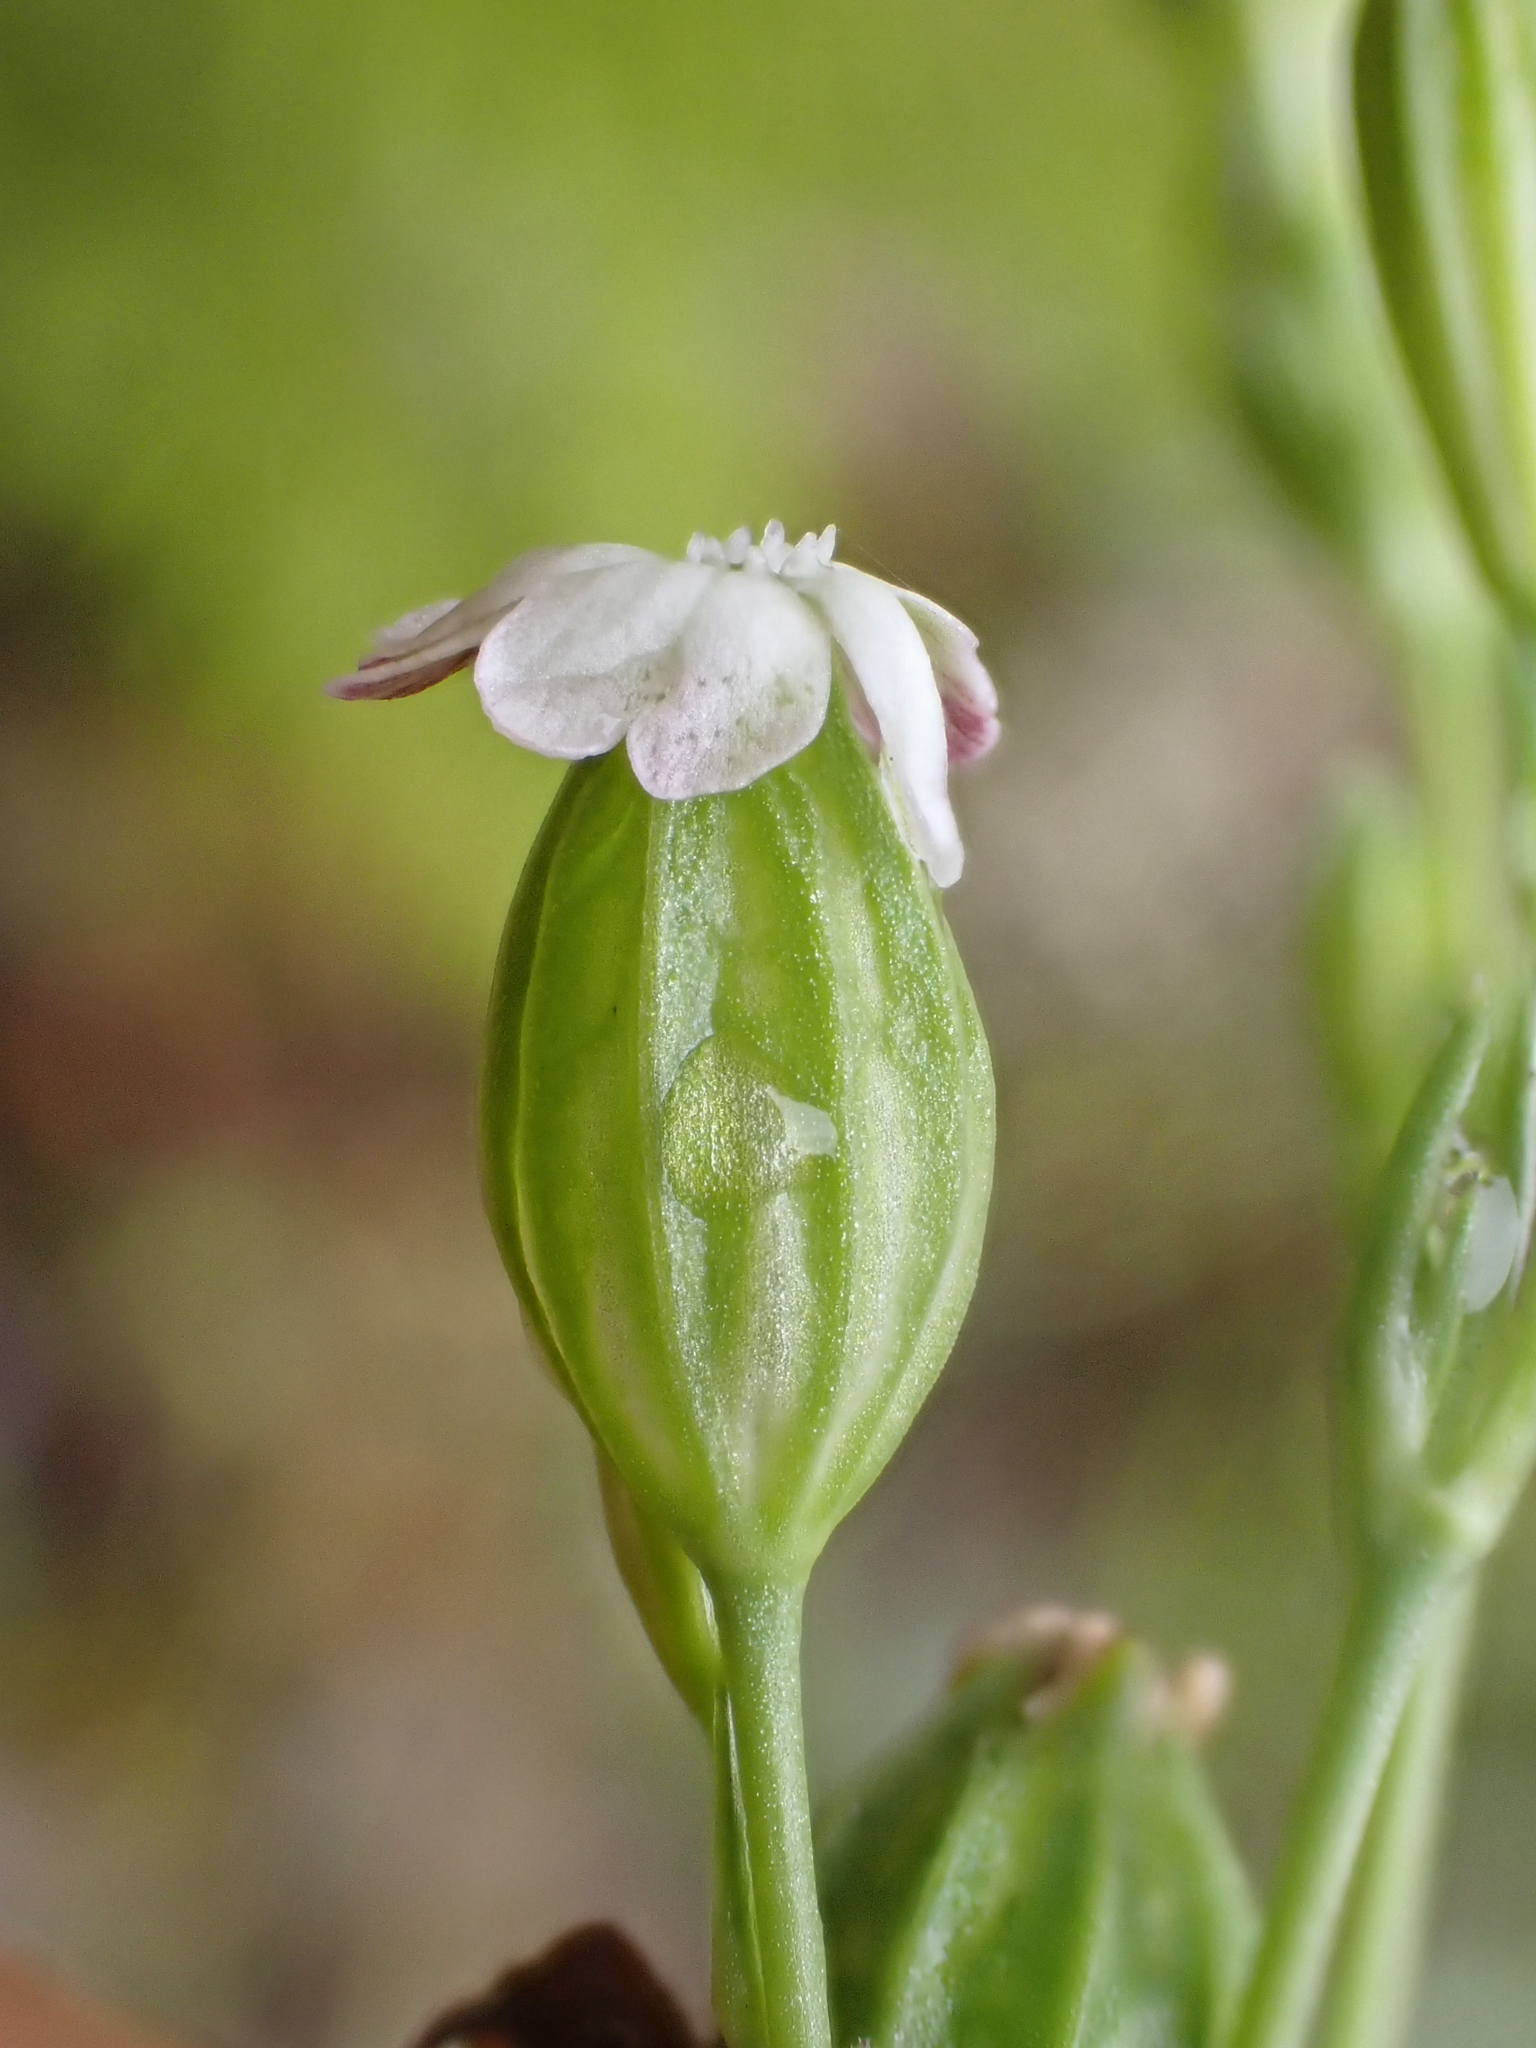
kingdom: Plantae
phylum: Tracheophyta
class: Magnoliopsida
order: Caryophyllales
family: Caryophyllaceae
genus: Silene
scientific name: Silene antirrhina
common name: Sleepy catchfly
